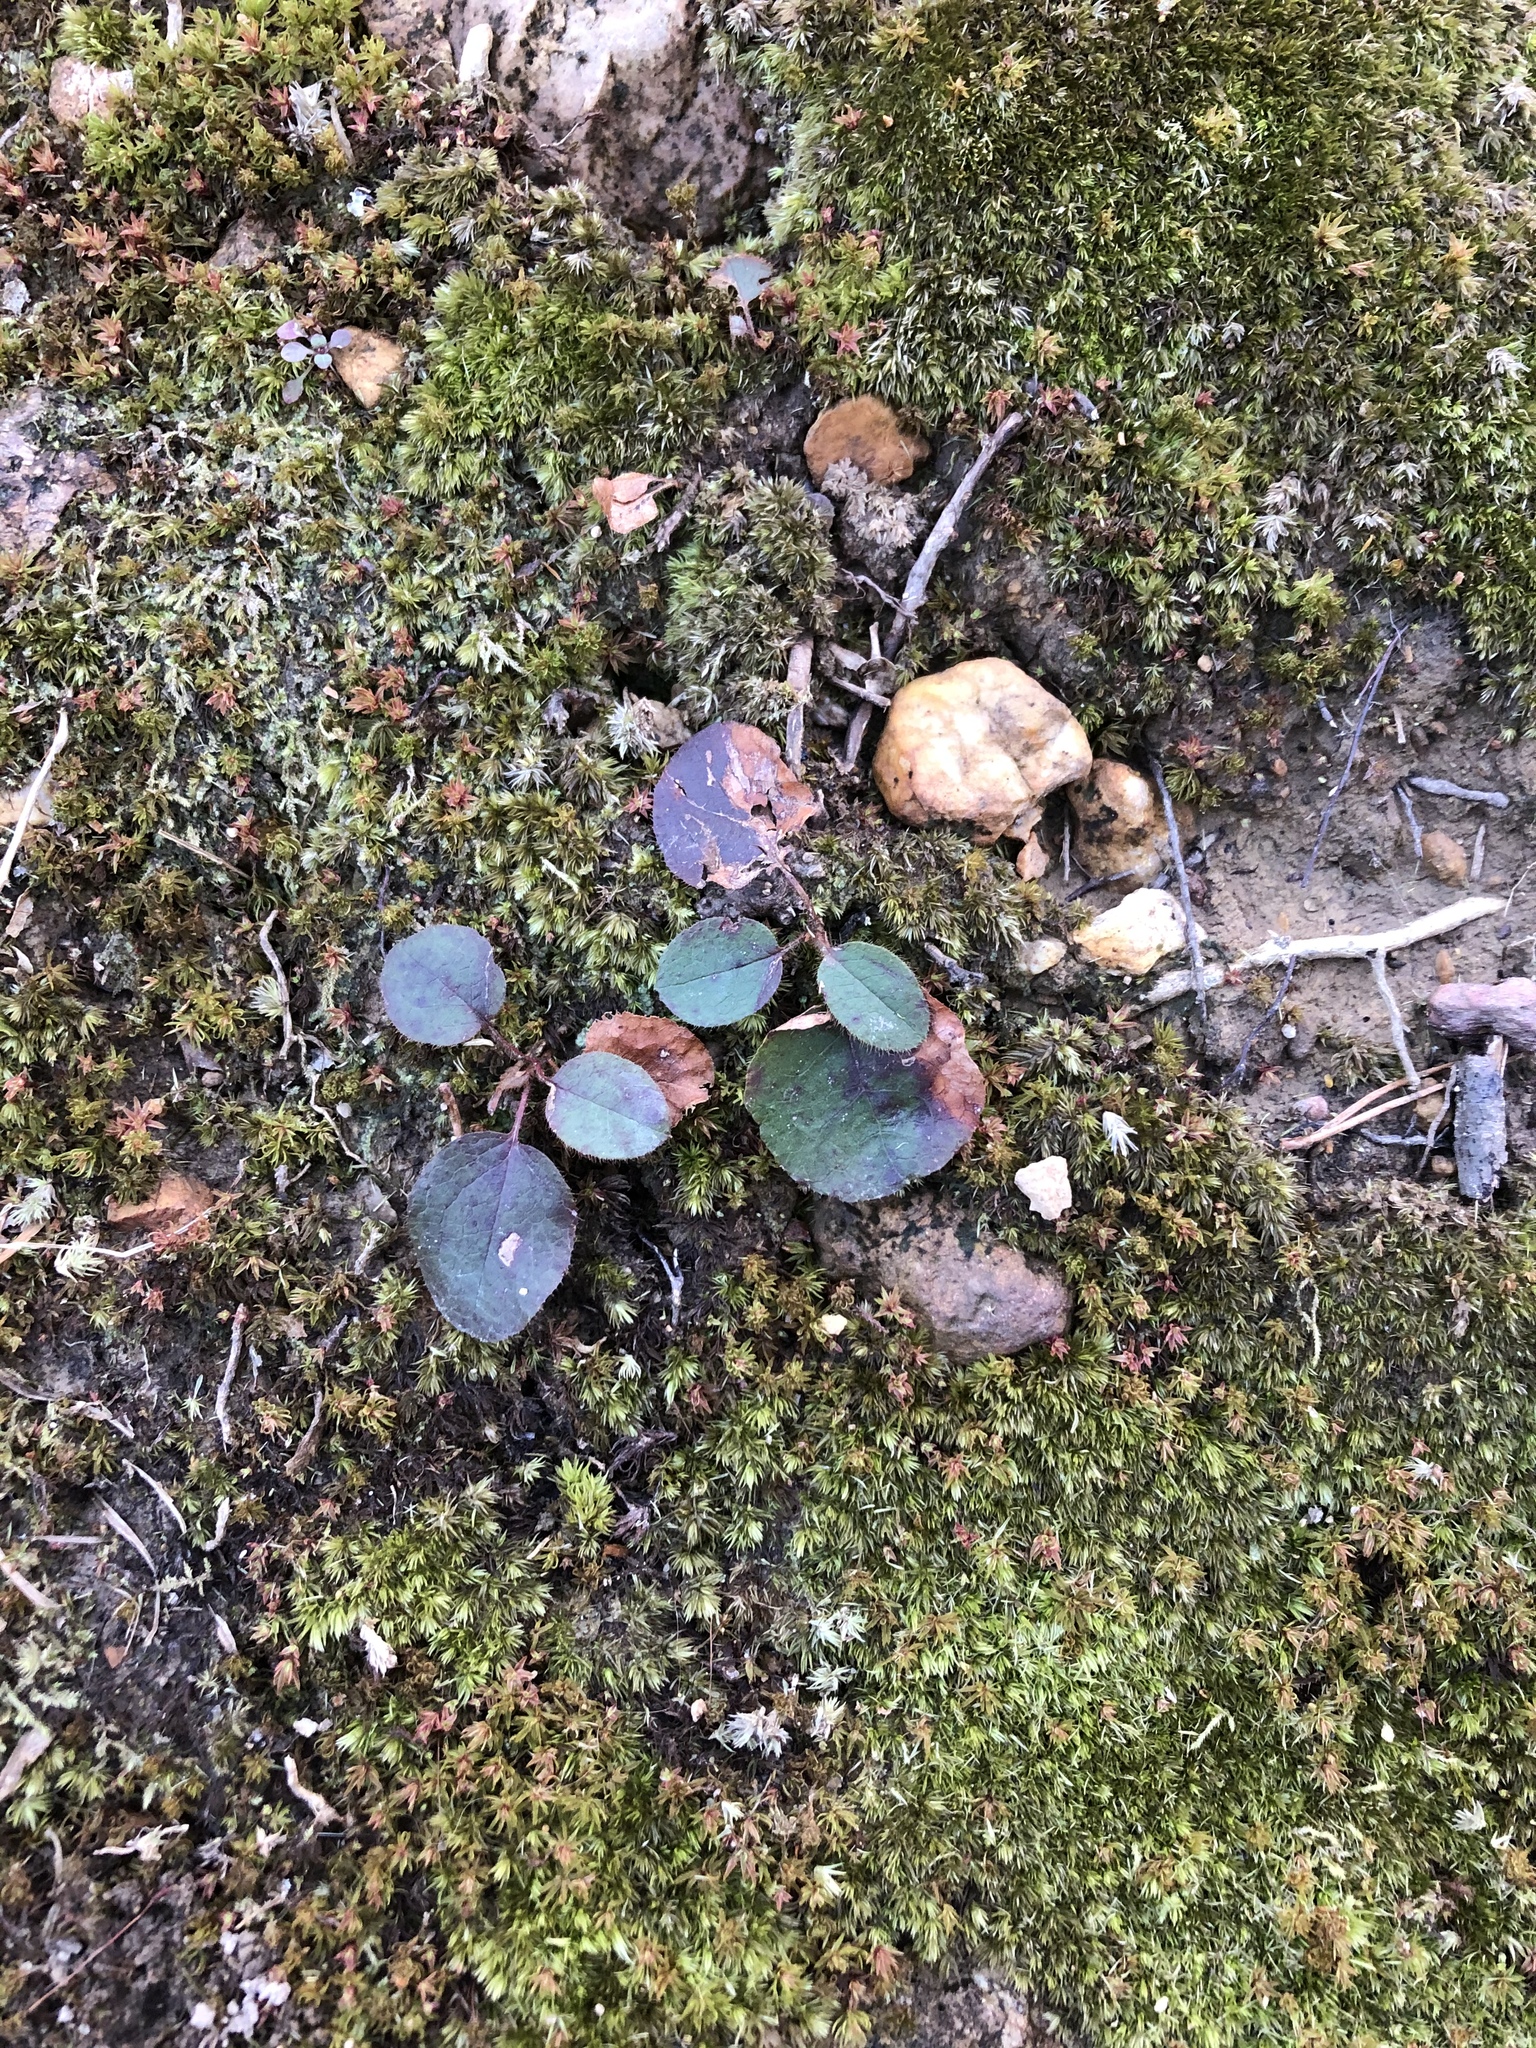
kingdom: Plantae
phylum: Tracheophyta
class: Magnoliopsida
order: Ericales
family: Ericaceae
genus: Epigaea
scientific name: Epigaea repens
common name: Gravelroot
